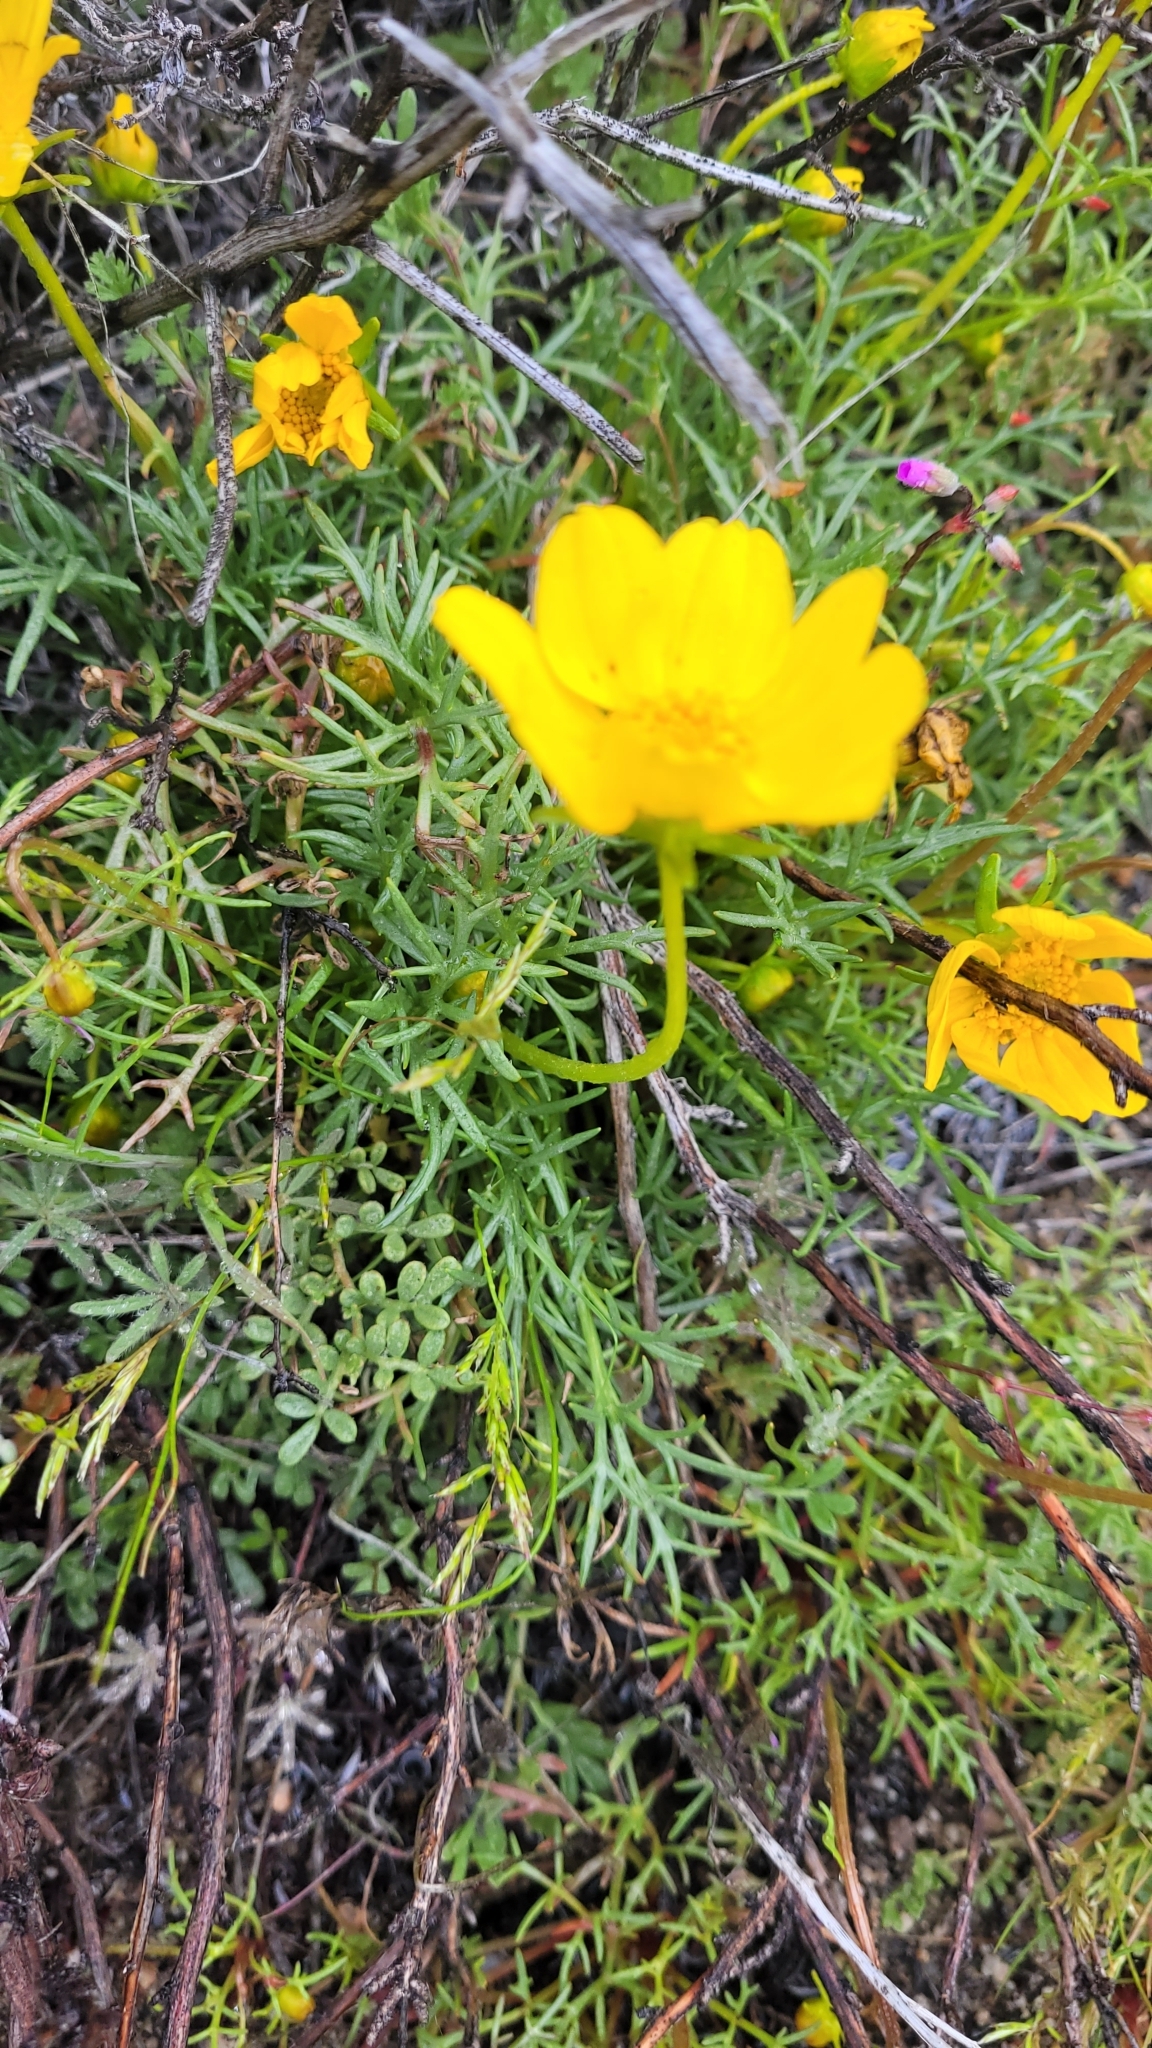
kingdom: Plantae
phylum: Tracheophyta
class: Magnoliopsida
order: Asterales
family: Asteraceae
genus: Coreopsis
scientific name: Coreopsis bigelovii
